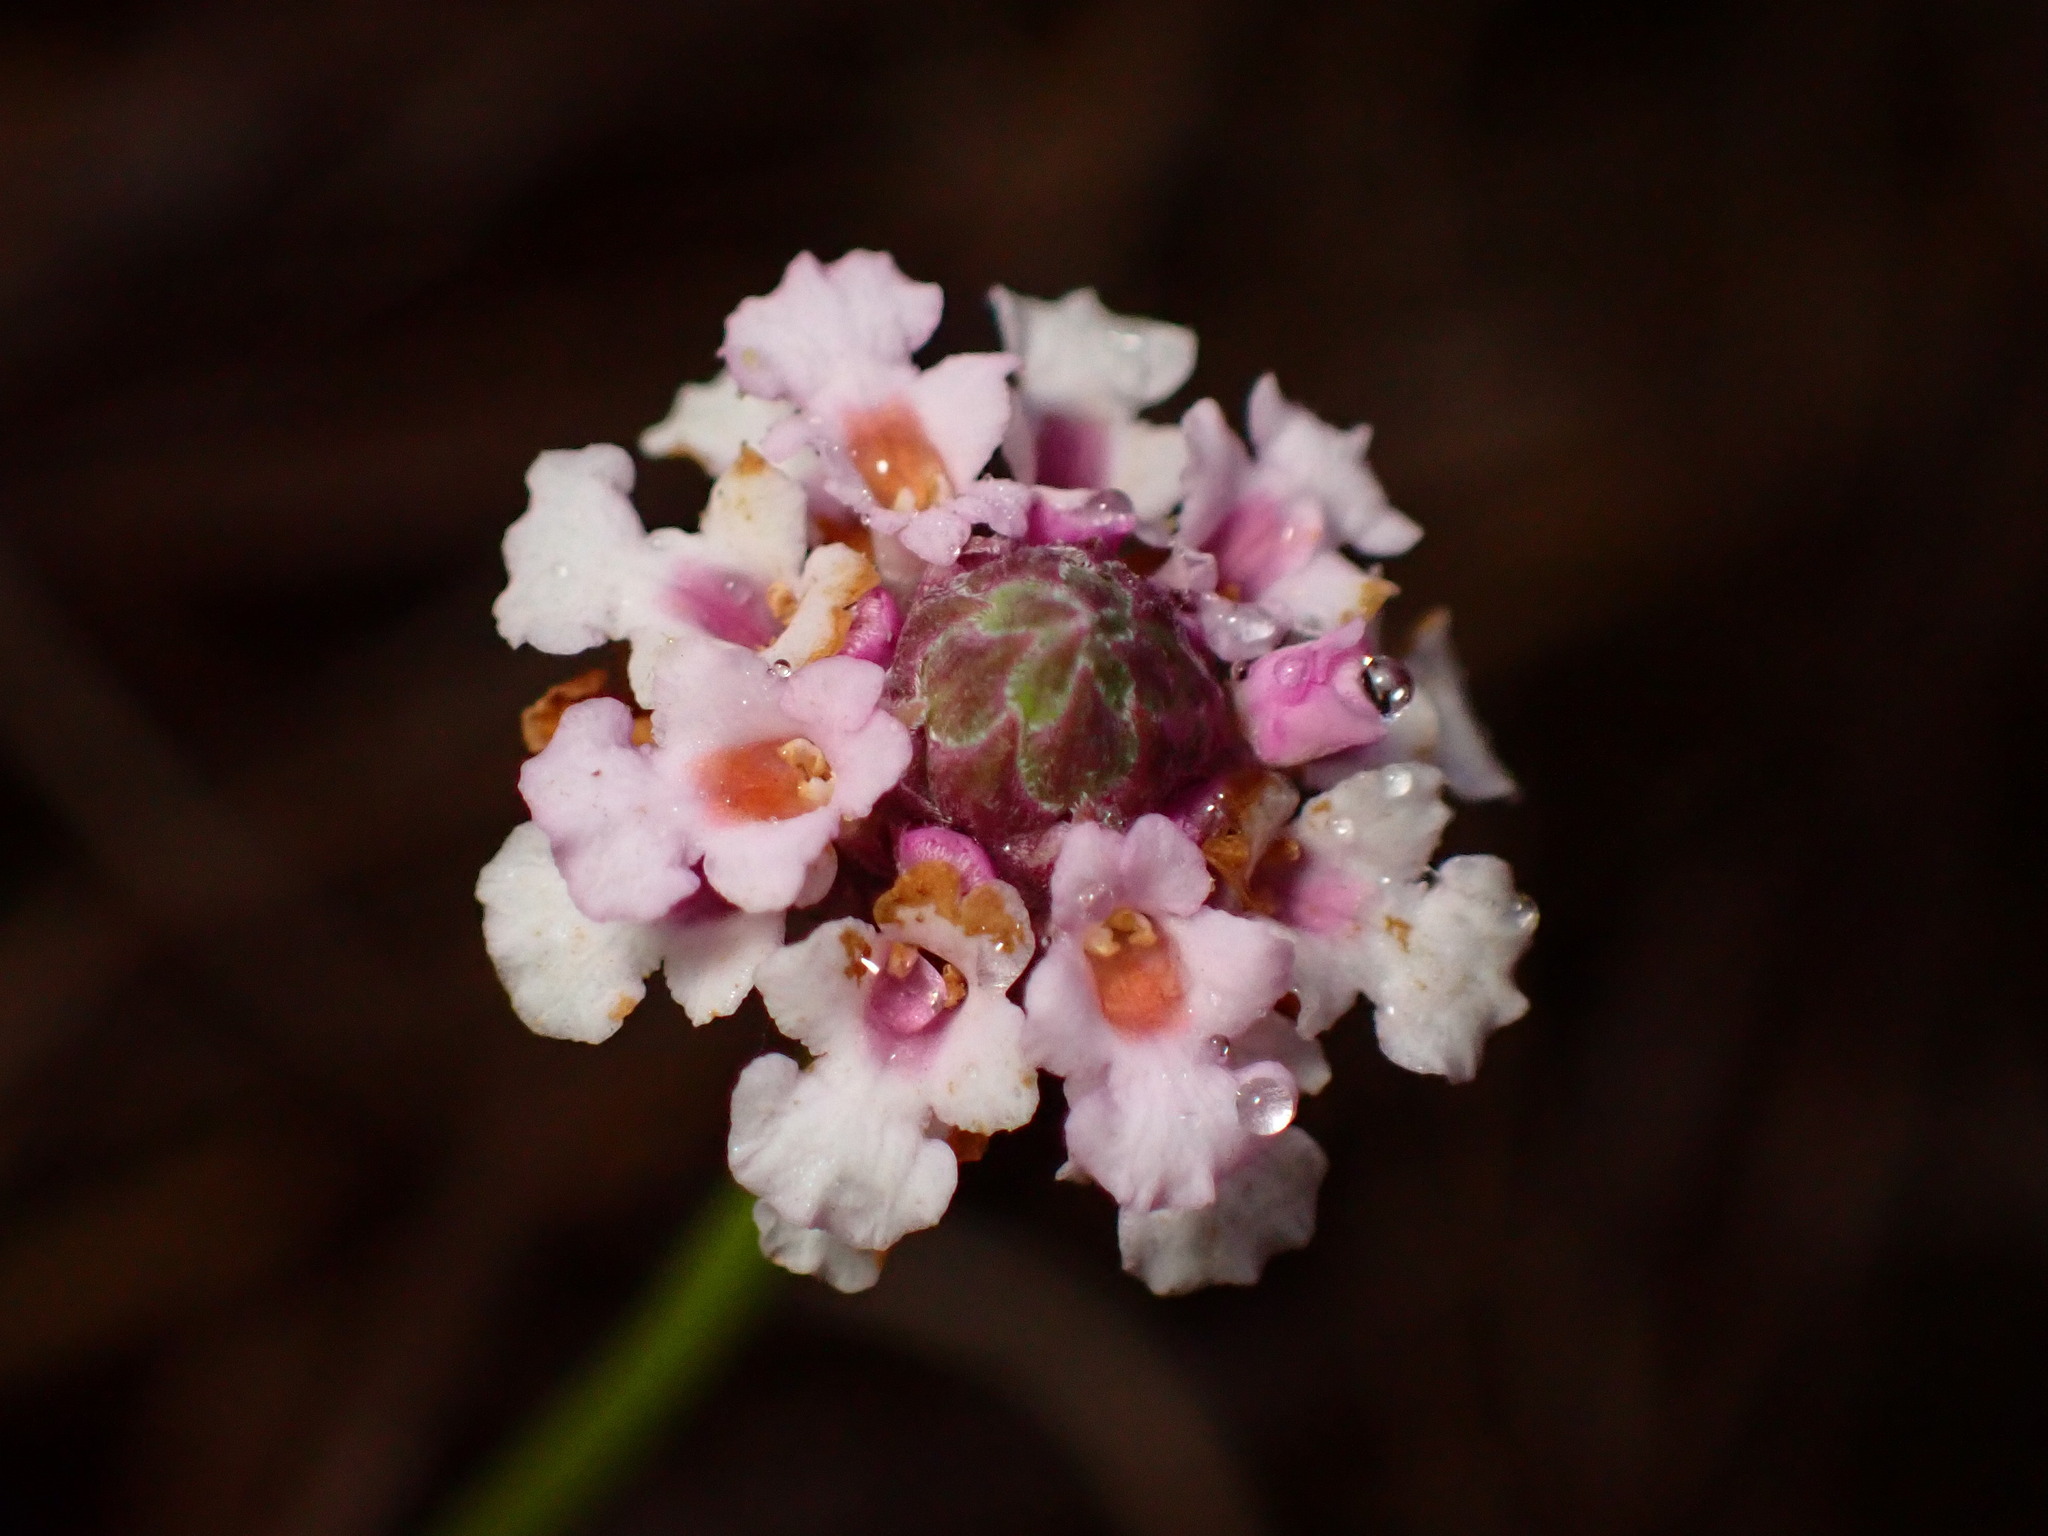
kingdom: Plantae
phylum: Tracheophyta
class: Magnoliopsida
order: Lamiales
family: Verbenaceae
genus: Phyla
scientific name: Phyla nodiflora
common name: Frogfruit
